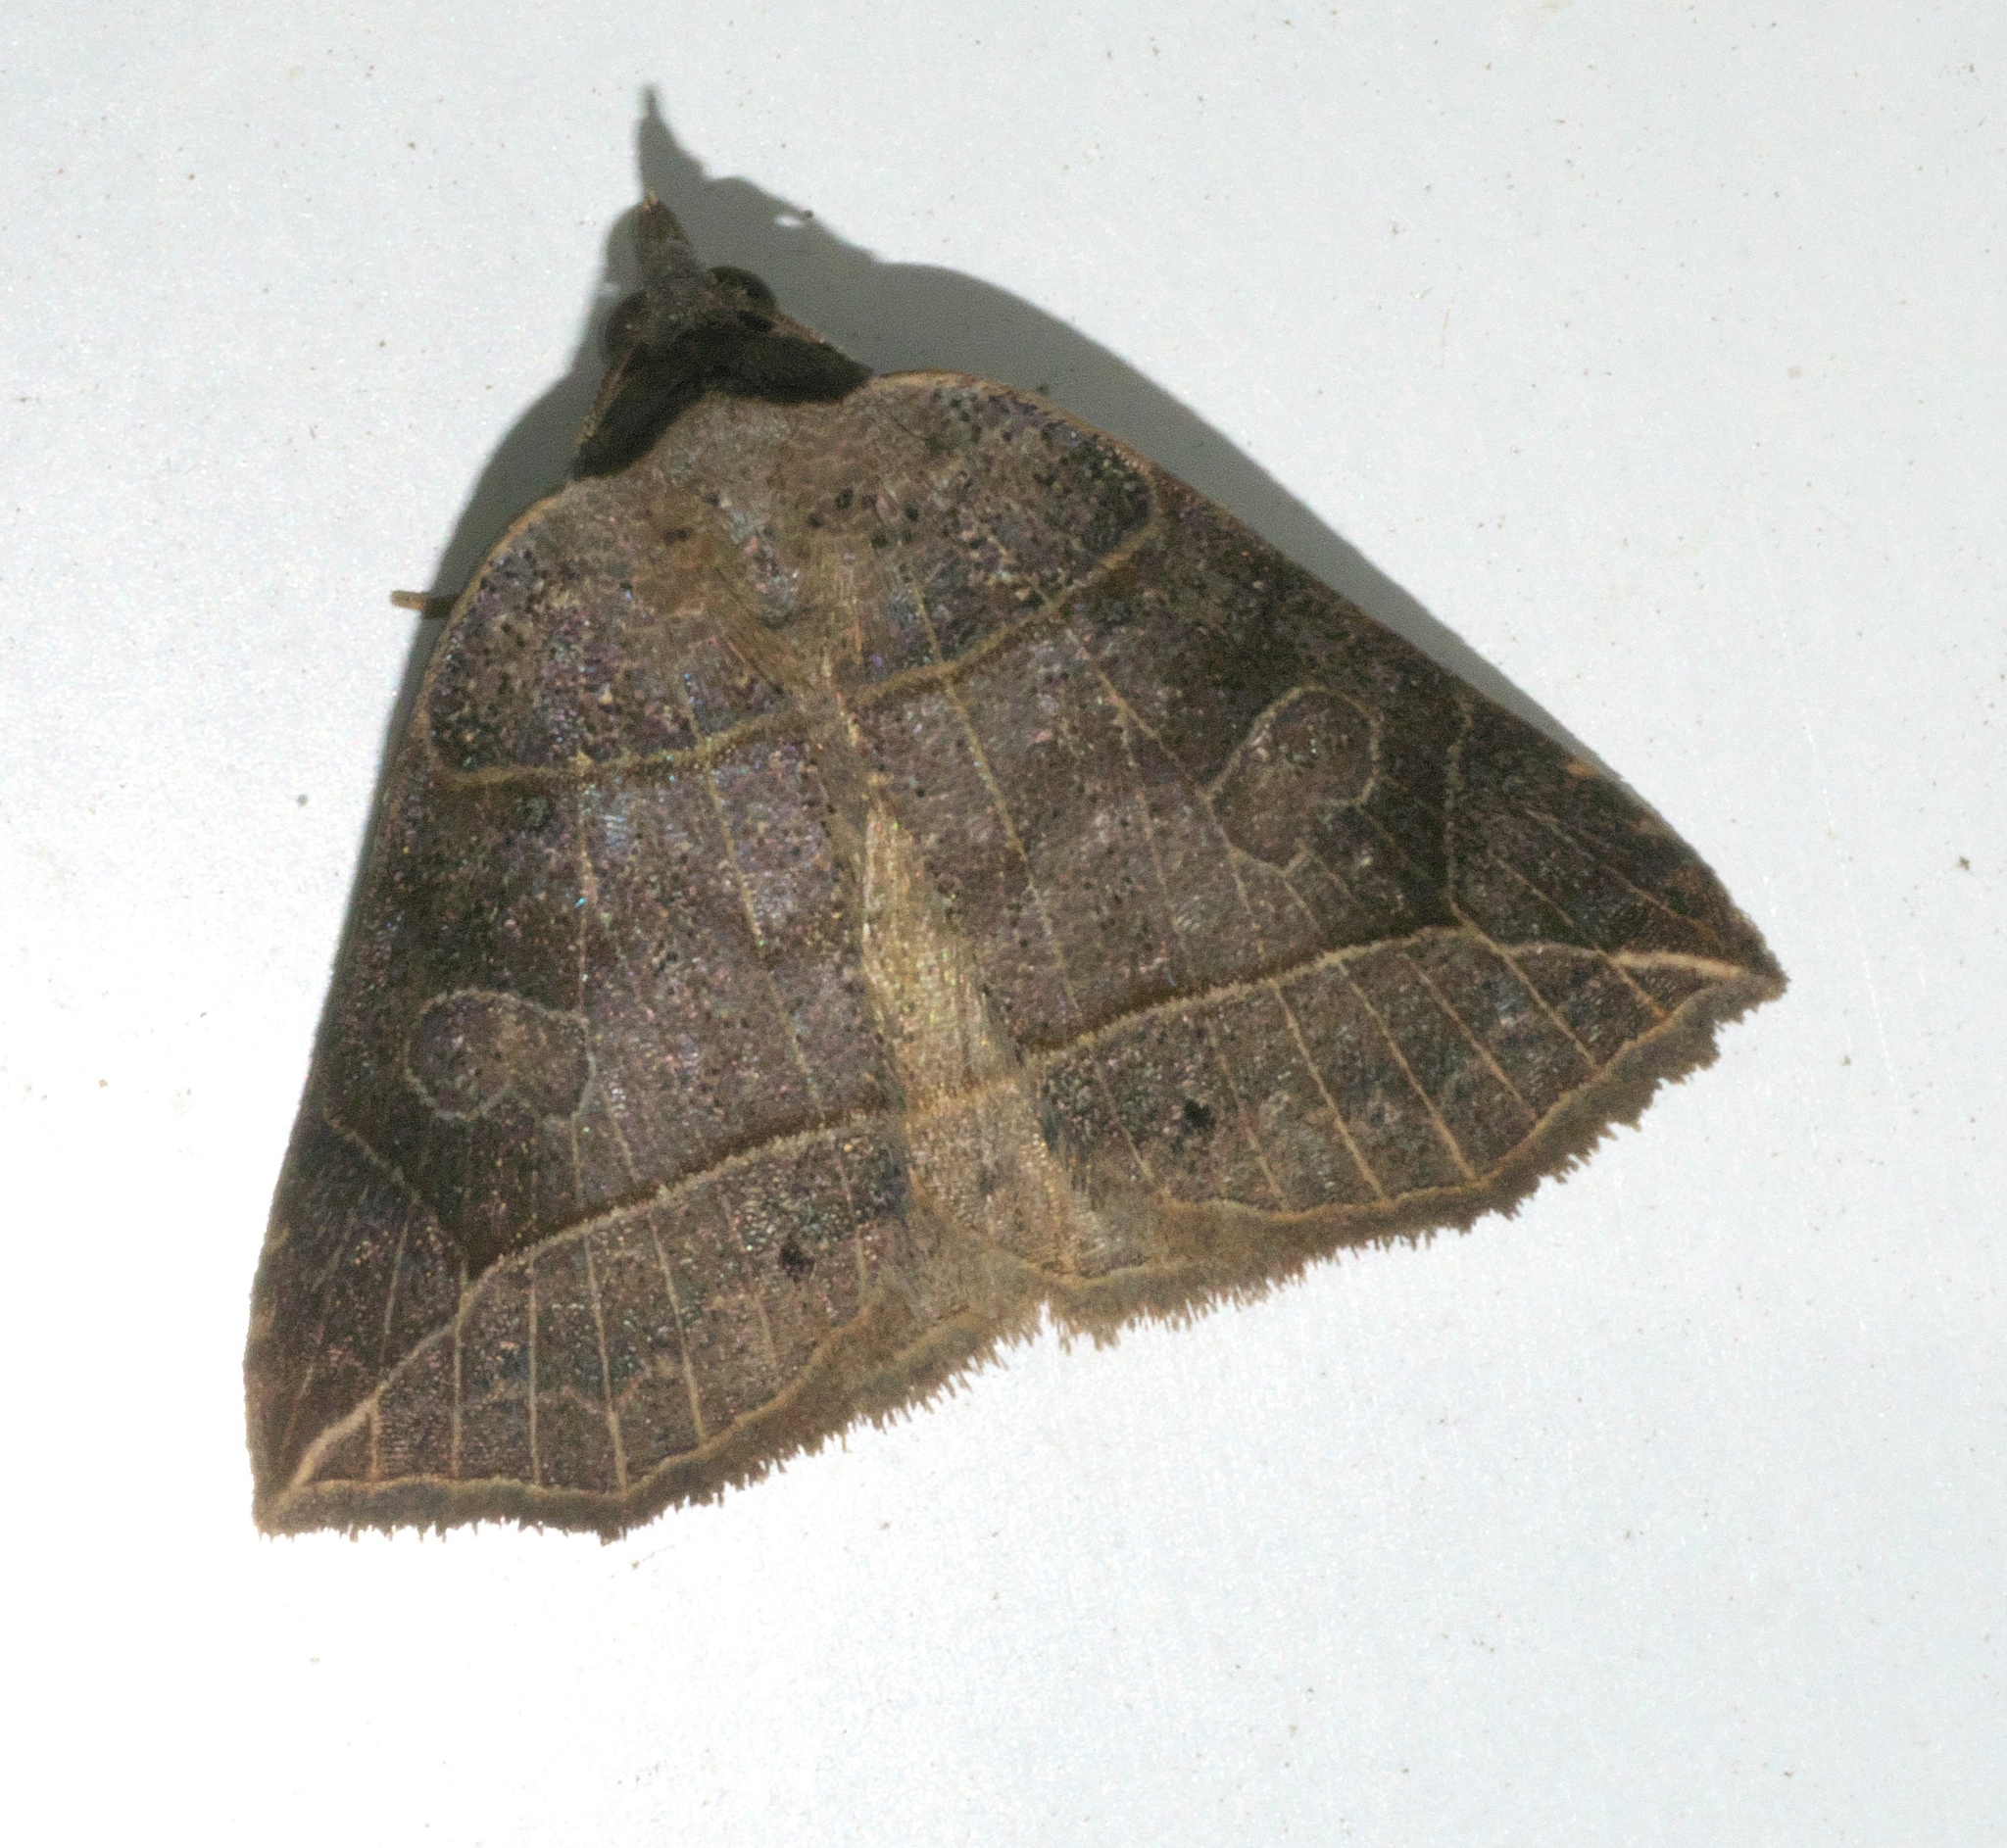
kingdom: Animalia
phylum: Arthropoda
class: Insecta
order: Lepidoptera
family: Erebidae
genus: Isogona
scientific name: Isogona tenuis
